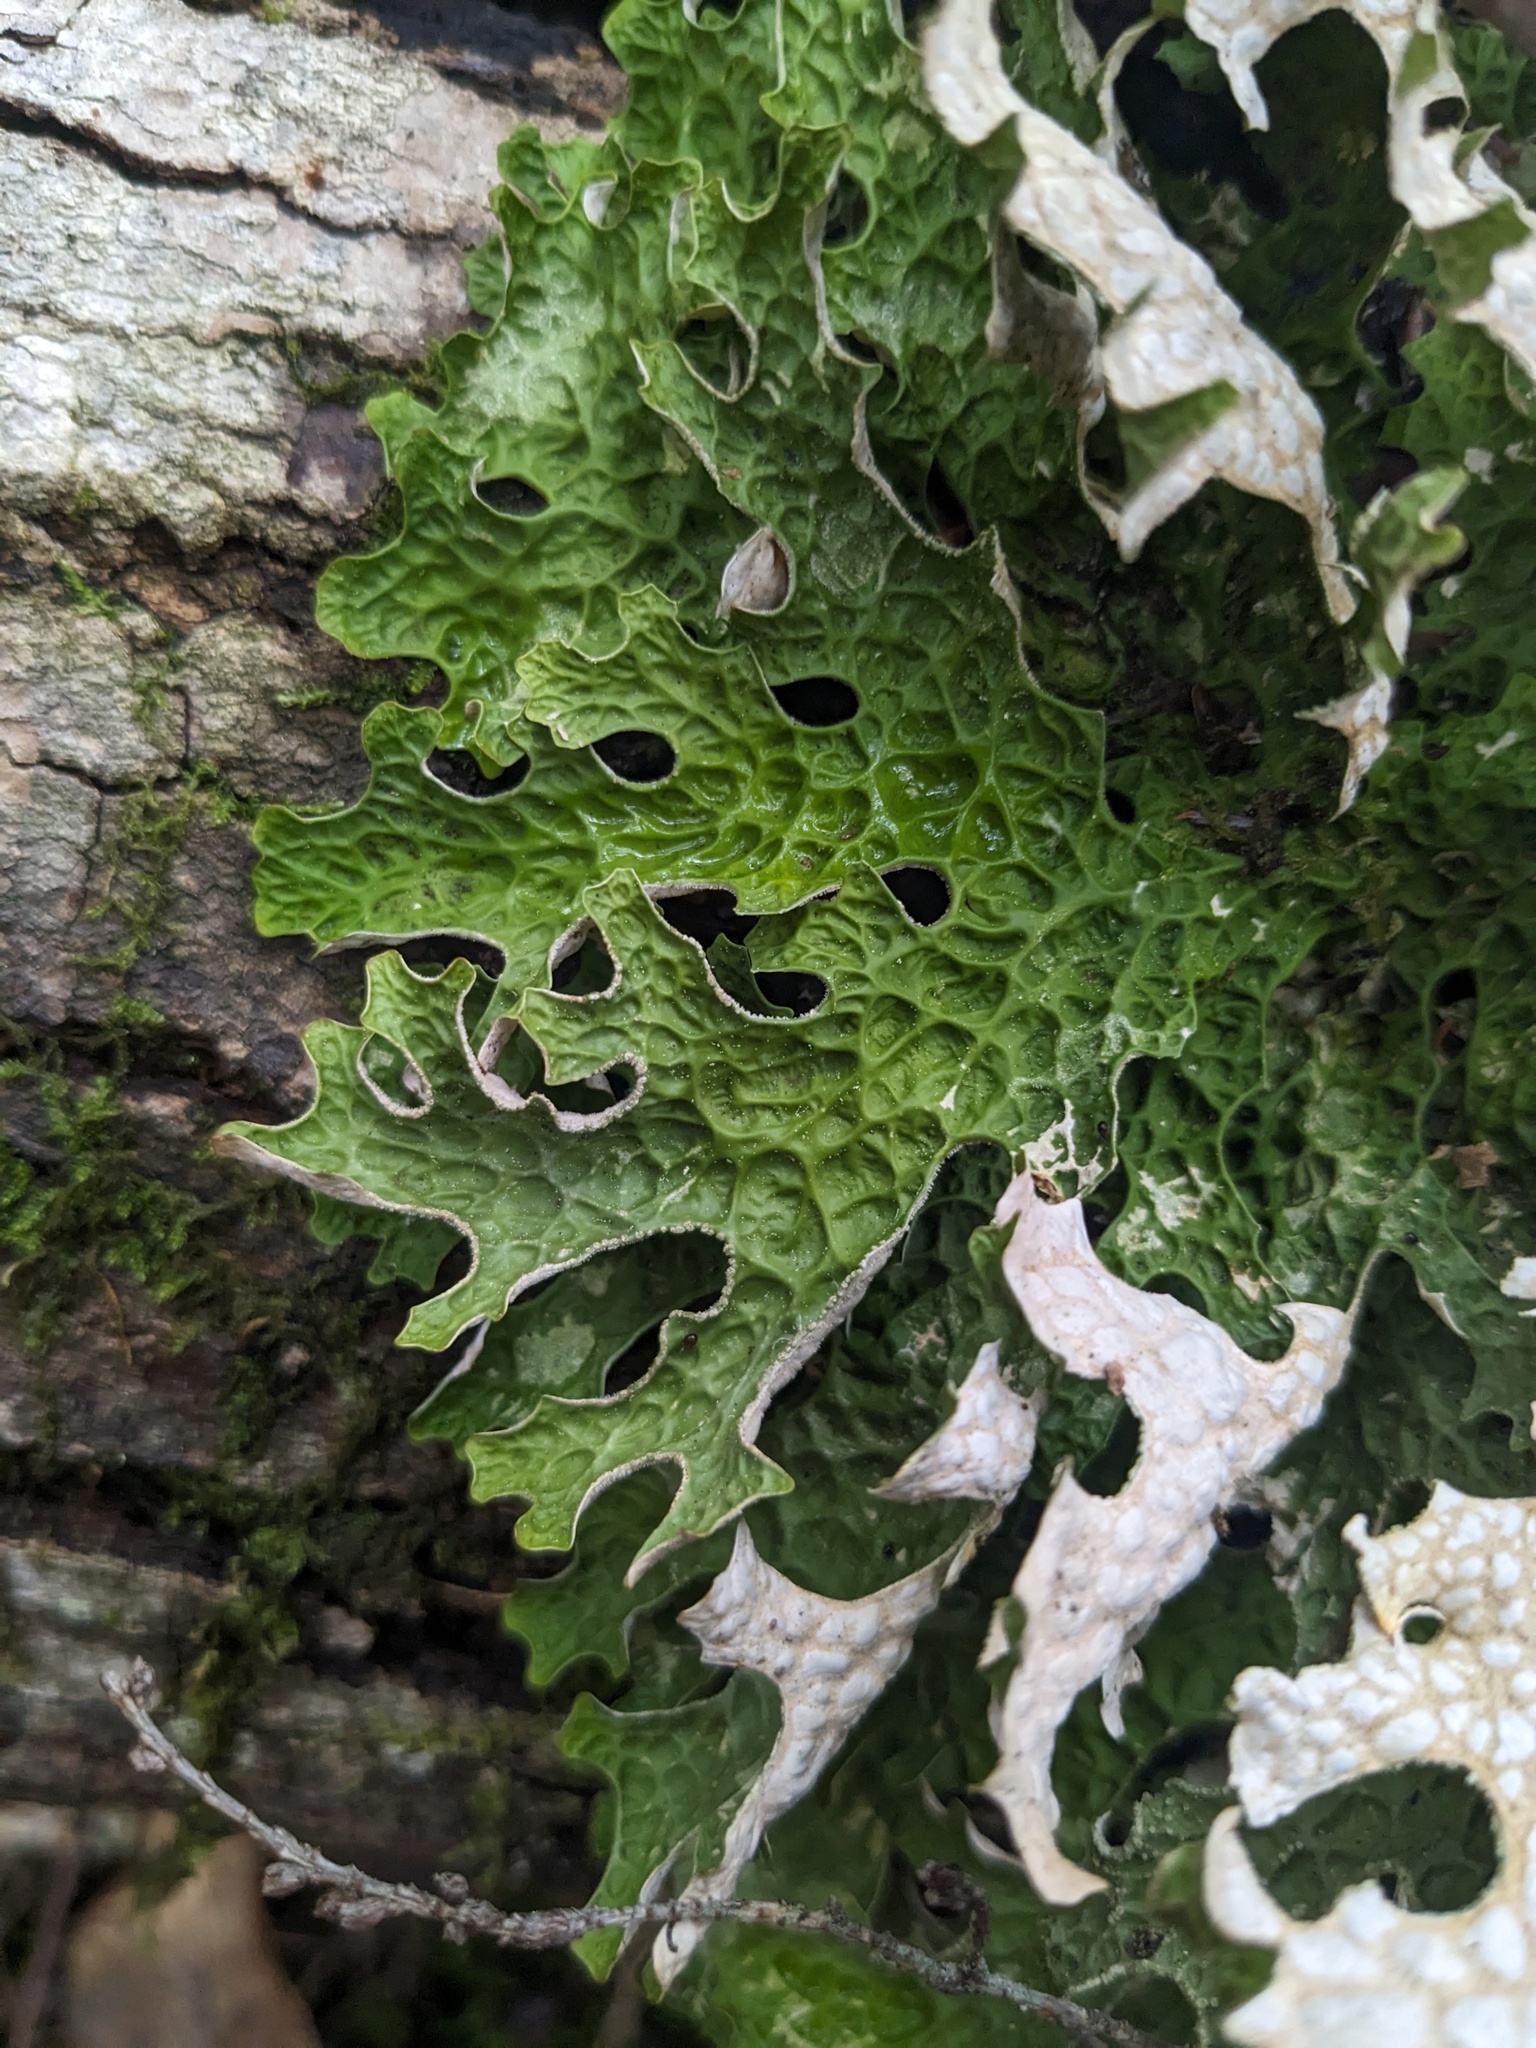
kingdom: Fungi
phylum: Ascomycota
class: Lecanoromycetes
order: Peltigerales
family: Lobariaceae
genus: Lobaria
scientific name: Lobaria pulmonaria
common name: Lungwort
